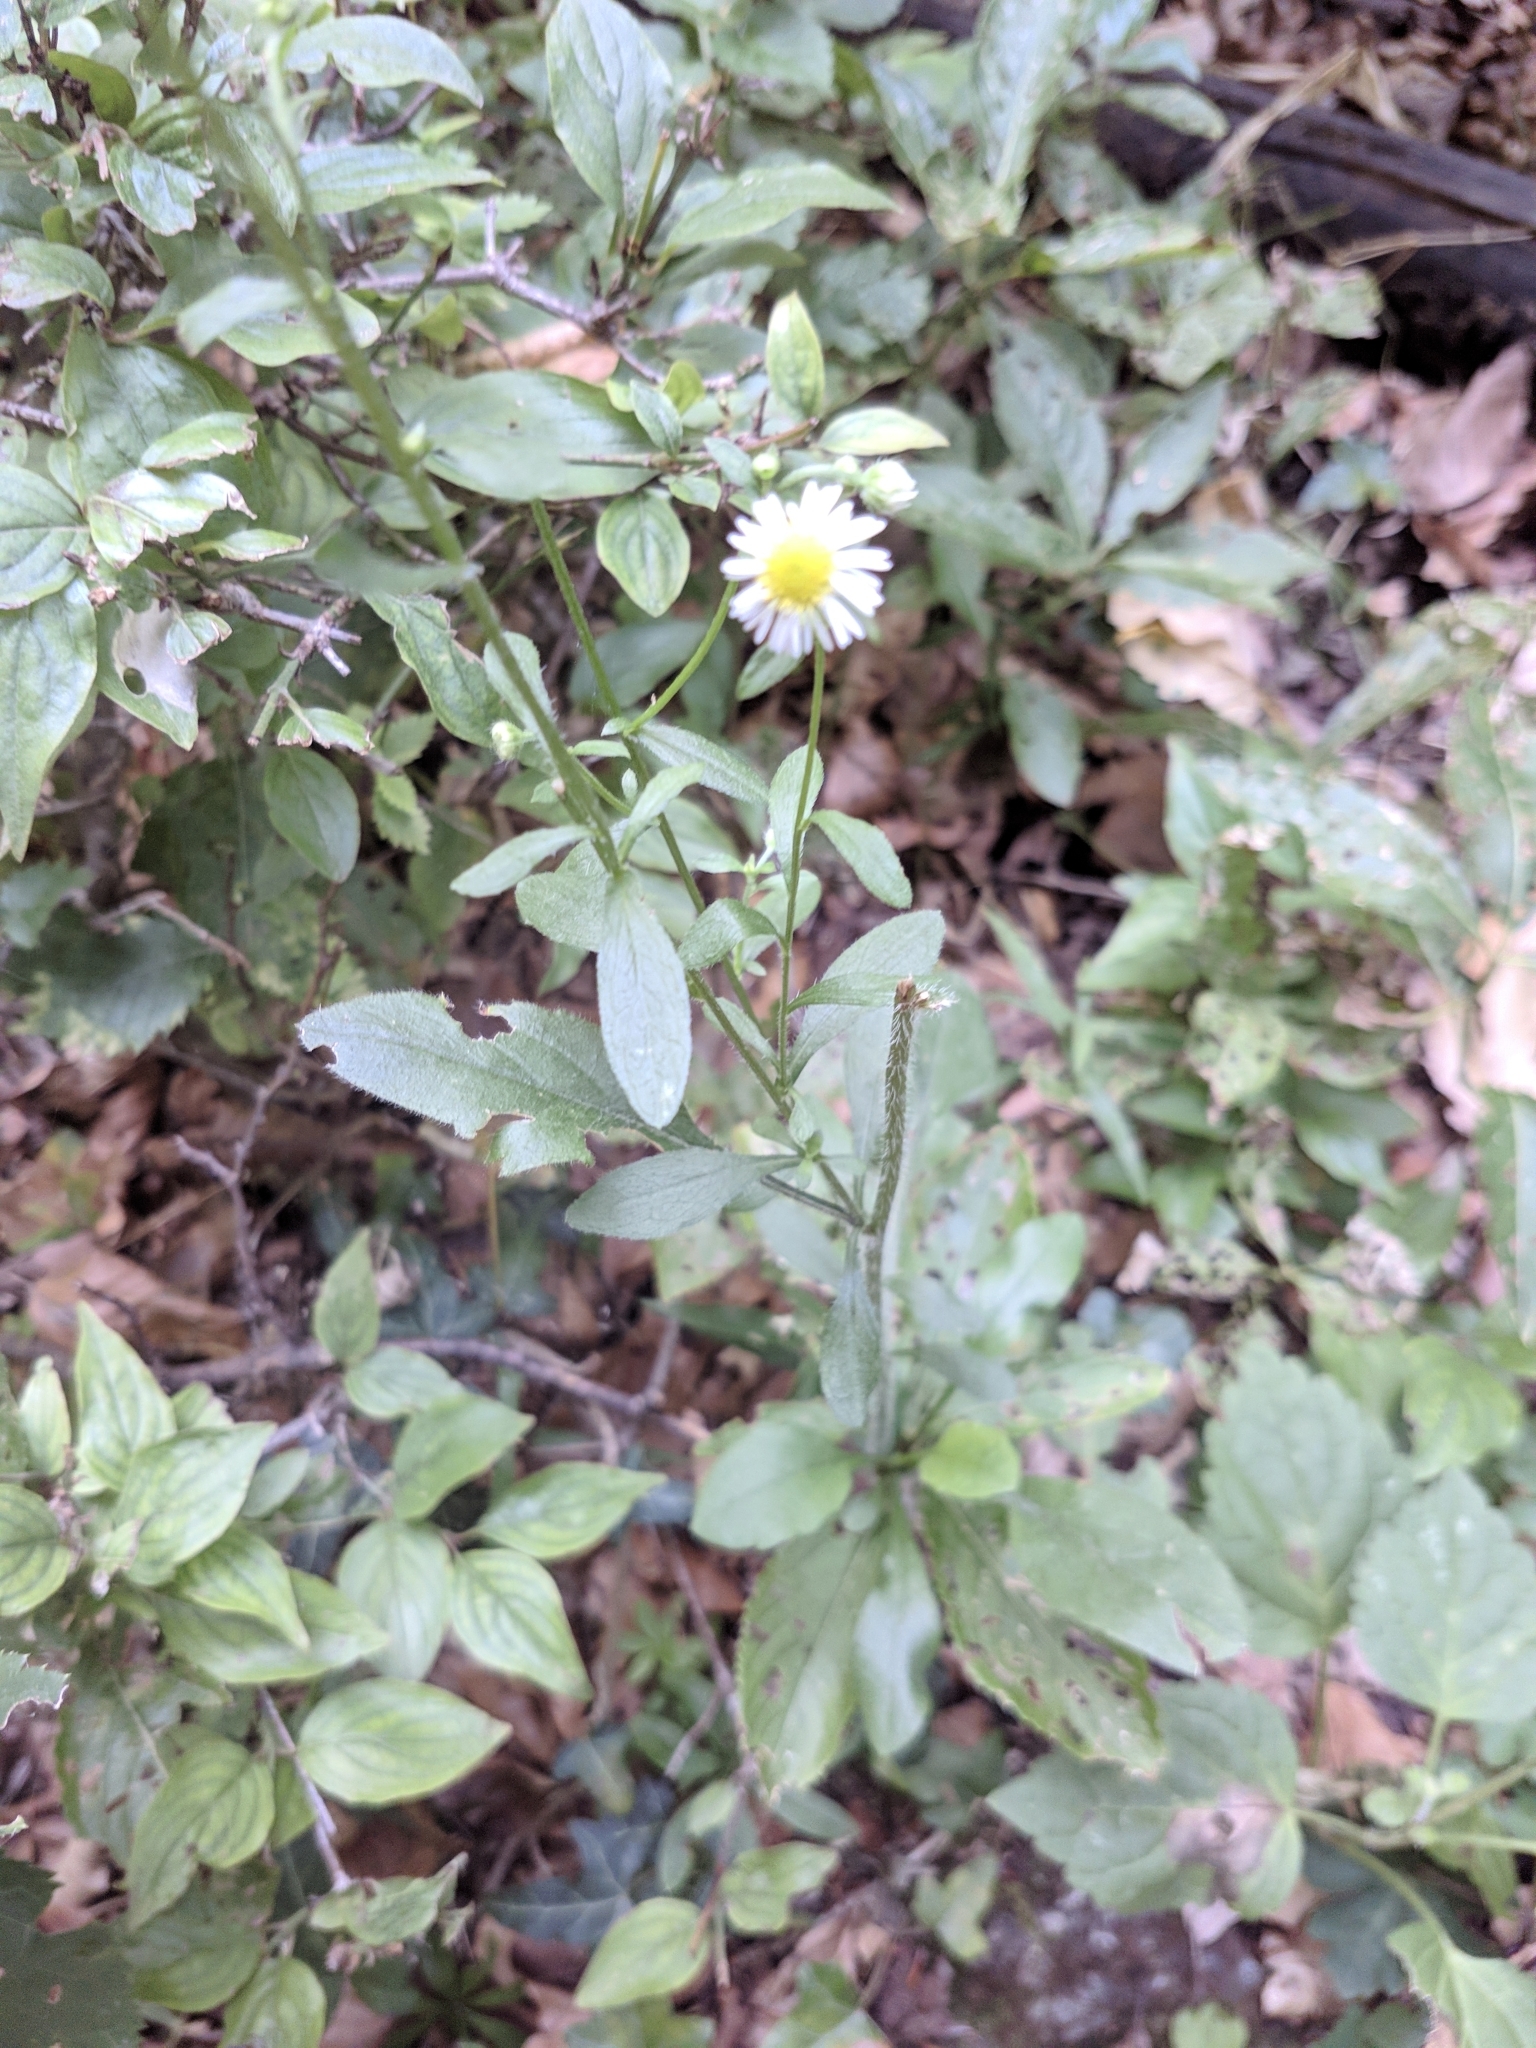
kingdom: Plantae
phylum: Tracheophyta
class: Magnoliopsida
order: Asterales
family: Asteraceae
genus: Erigeron
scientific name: Erigeron annuus
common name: Tall fleabane
